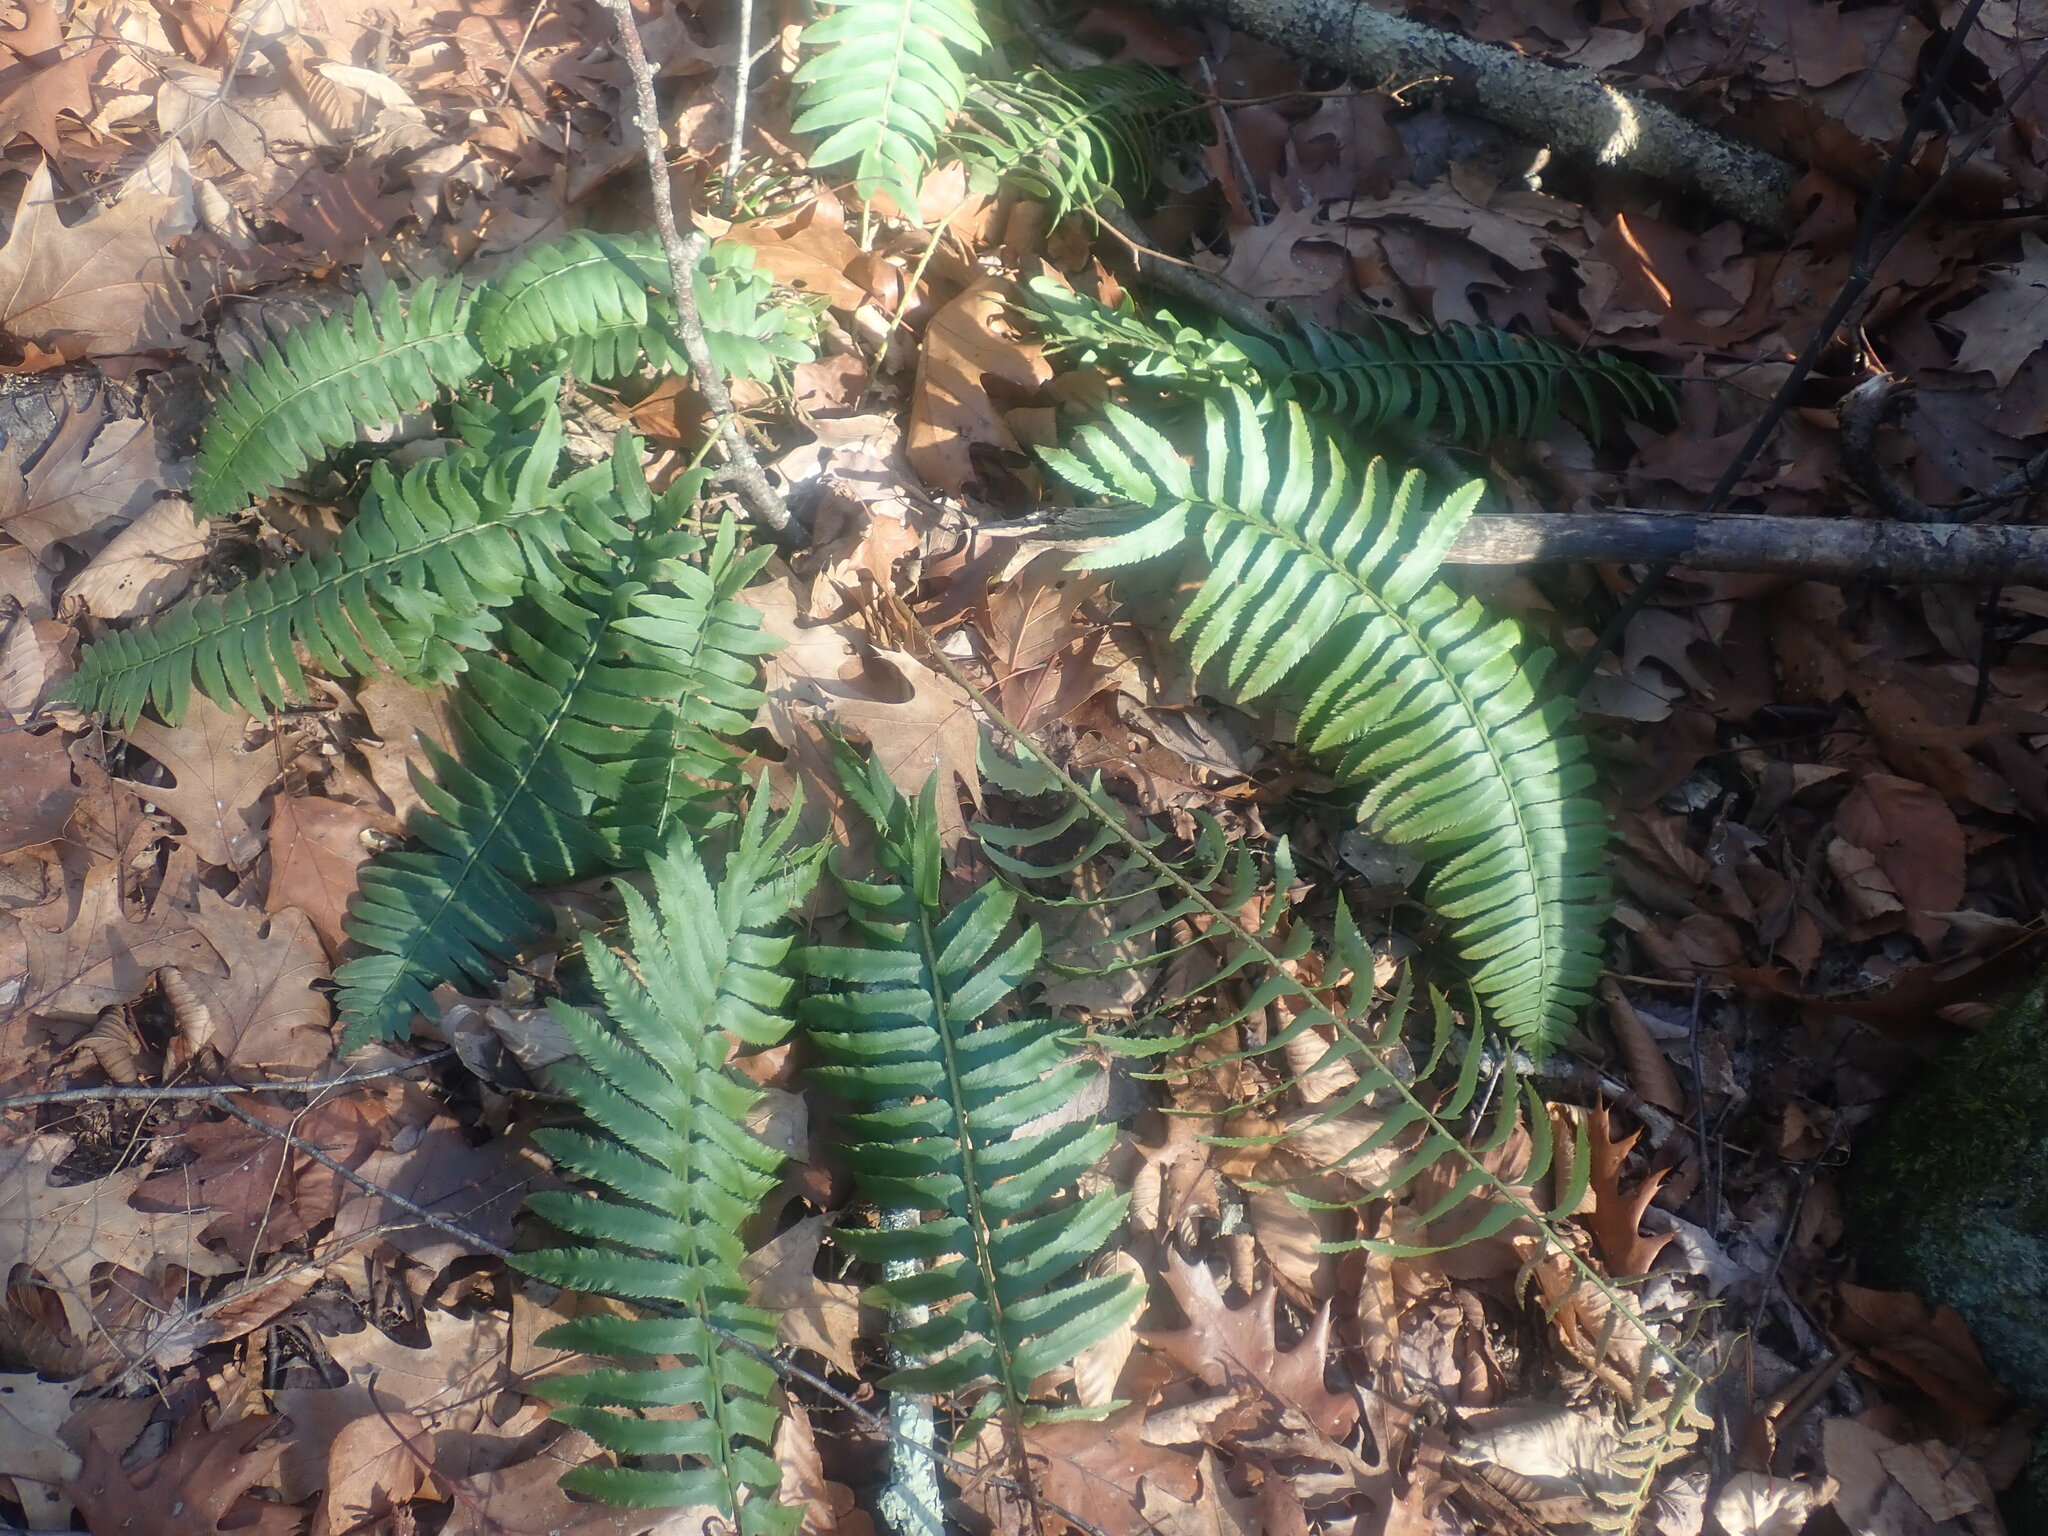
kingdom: Plantae
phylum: Tracheophyta
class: Polypodiopsida
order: Polypodiales
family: Dryopteridaceae
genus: Polystichum
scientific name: Polystichum acrostichoides
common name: Christmas fern
